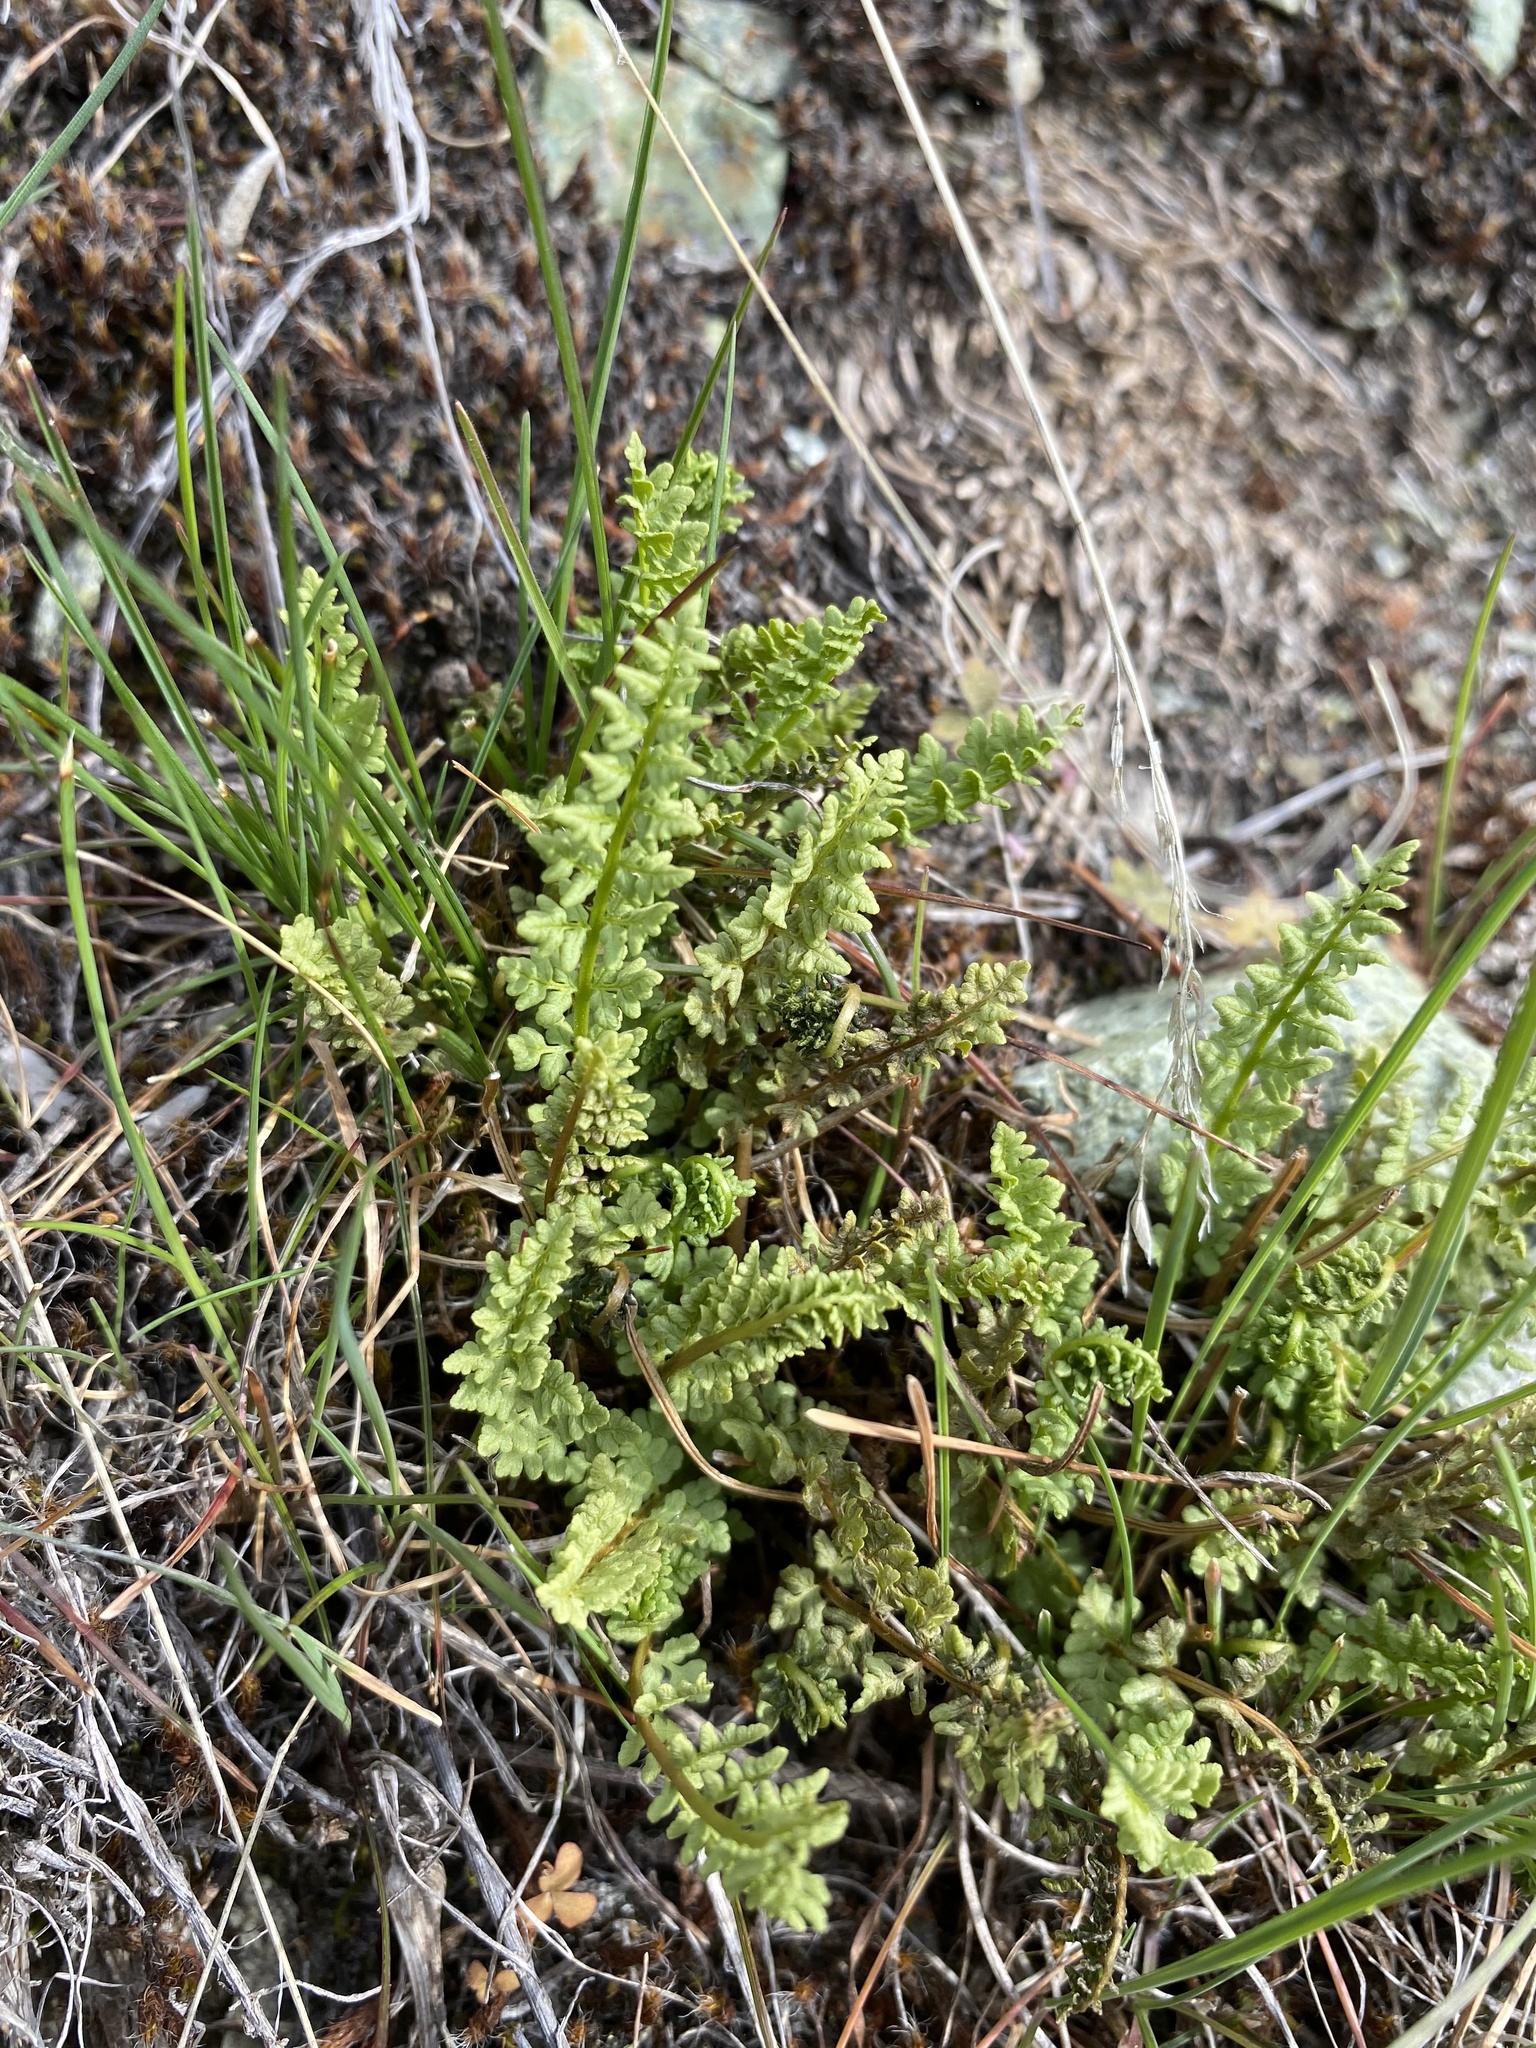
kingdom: Plantae
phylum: Tracheophyta
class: Polypodiopsida
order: Polypodiales
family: Woodsiaceae
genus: Physematium
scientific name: Physematium oreganum
